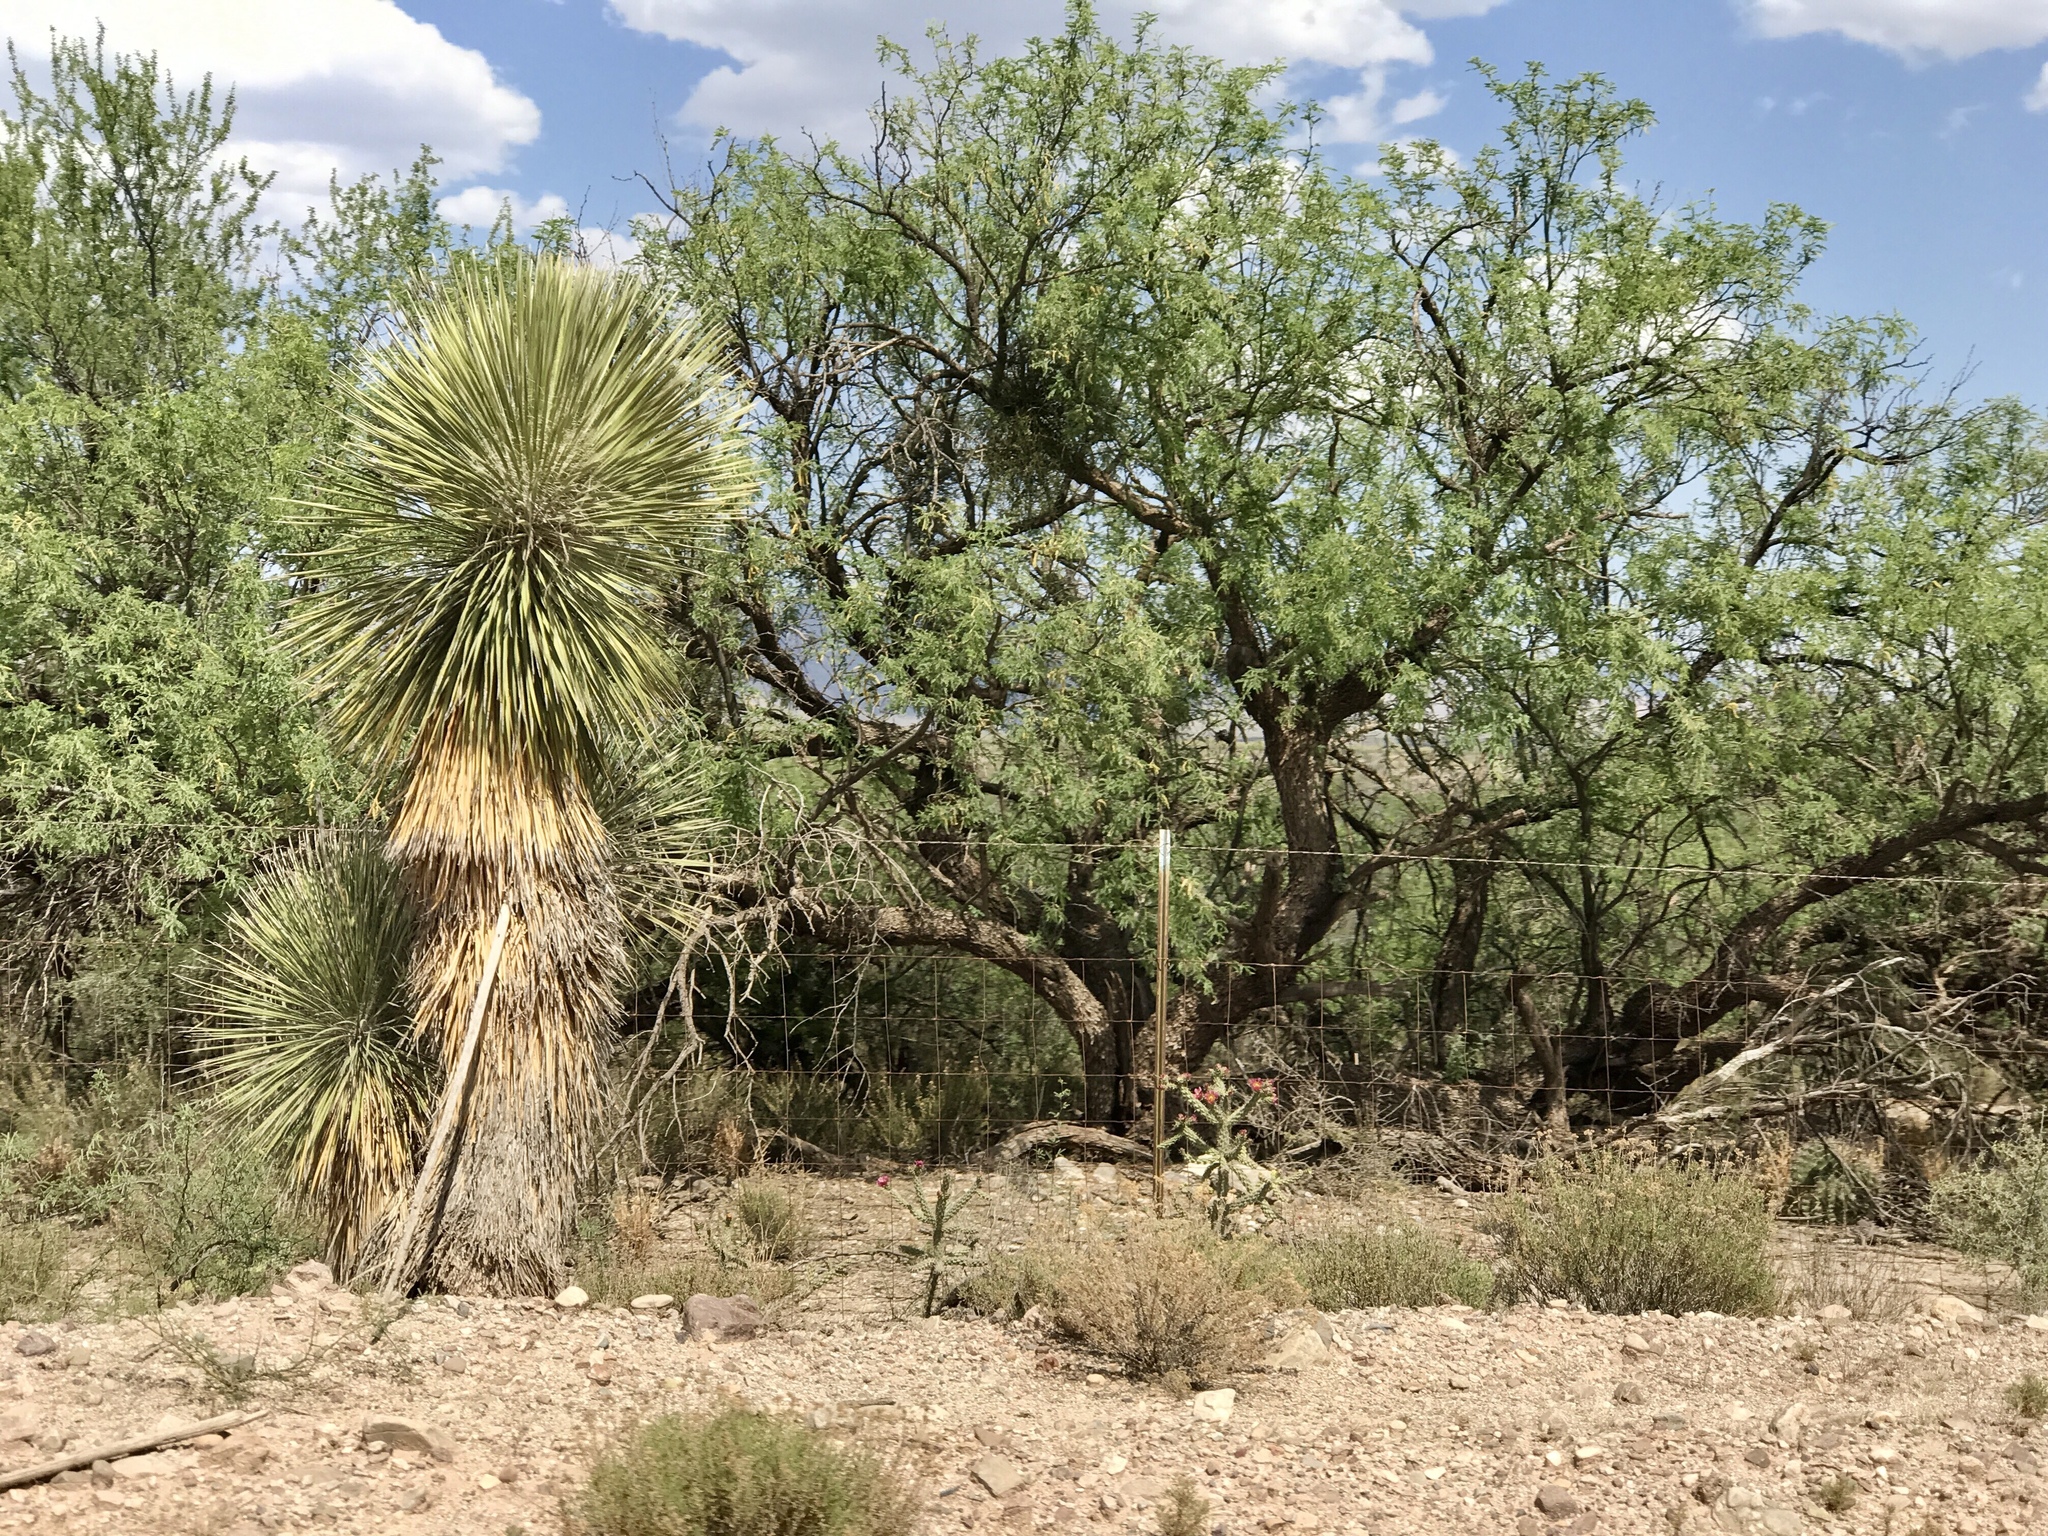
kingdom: Plantae
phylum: Tracheophyta
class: Liliopsida
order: Asparagales
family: Asparagaceae
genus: Yucca
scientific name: Yucca elata
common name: Palmella
